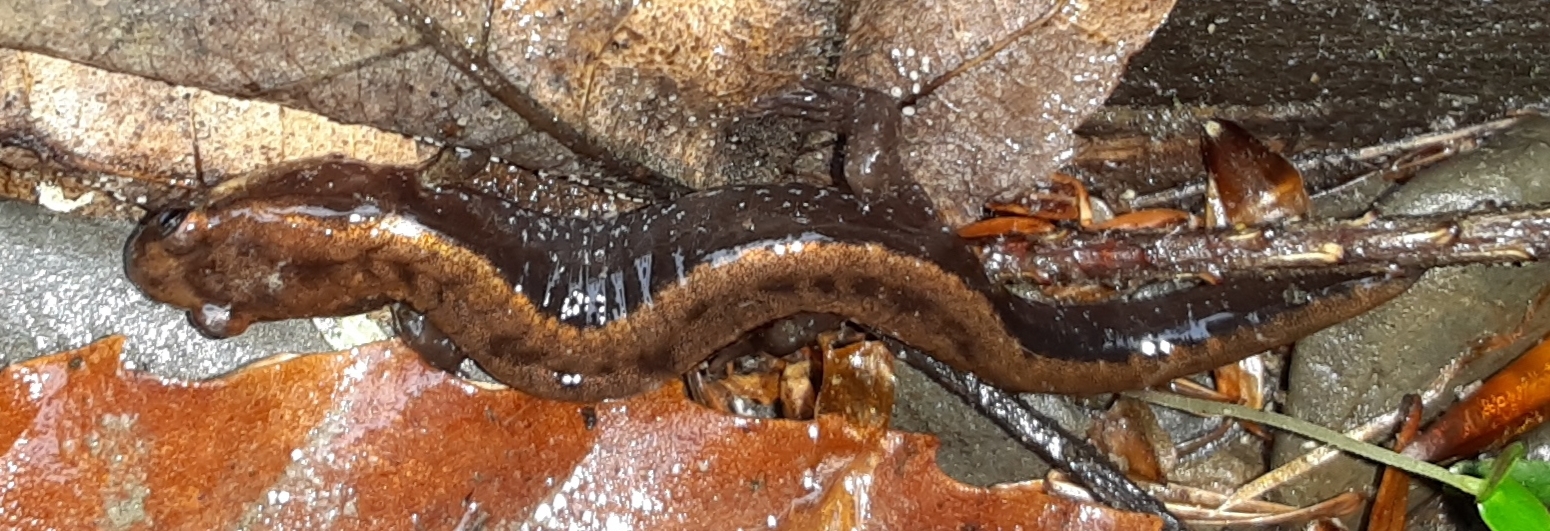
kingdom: Animalia
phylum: Chordata
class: Amphibia
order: Caudata
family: Plethodontidae
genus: Desmognathus
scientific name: Desmognathus ochrophaeus
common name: Allegheny mountain dusky salamander
